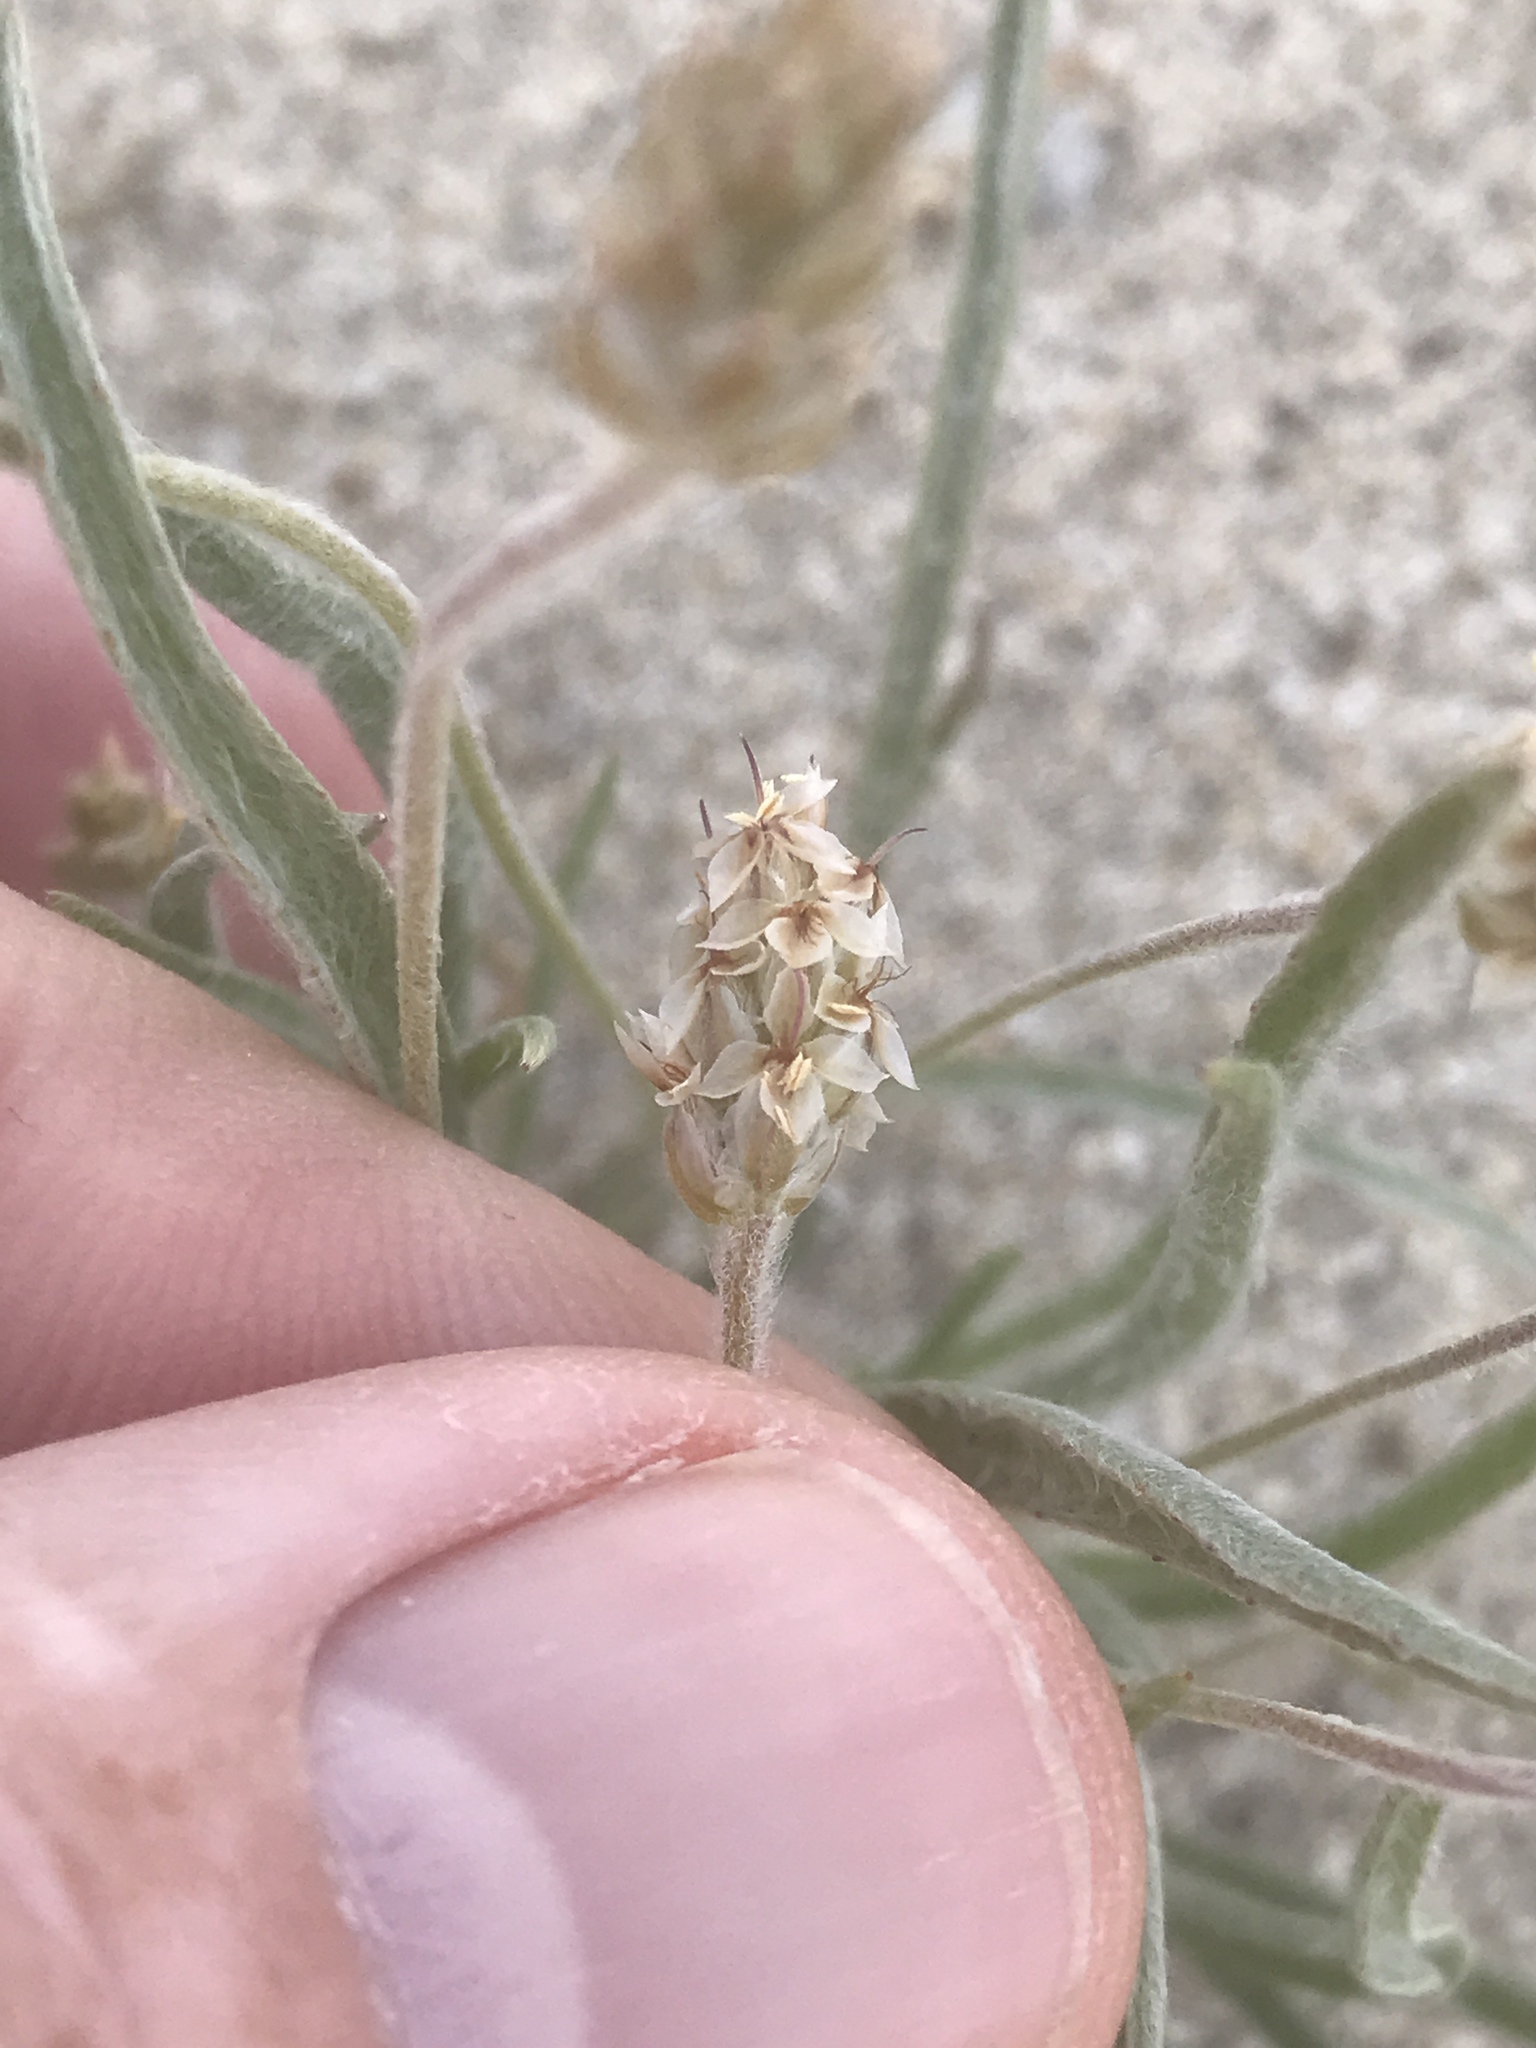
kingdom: Plantae
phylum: Tracheophyta
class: Magnoliopsida
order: Lamiales
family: Plantaginaceae
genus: Plantago
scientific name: Plantago ovata
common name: Blond plantain
